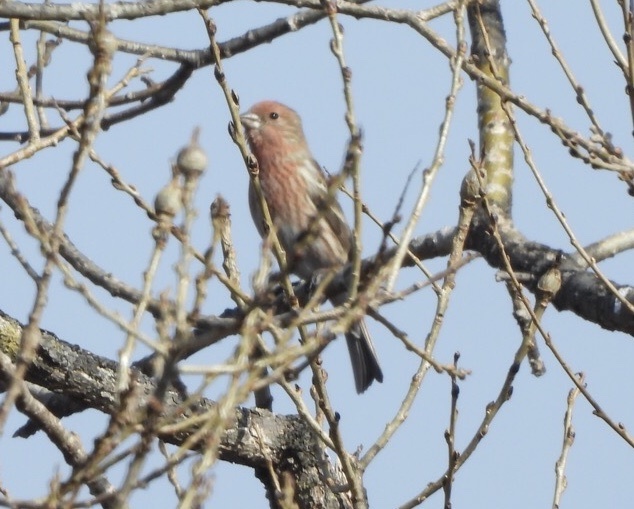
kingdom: Animalia
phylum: Chordata
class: Aves
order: Passeriformes
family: Fringillidae
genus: Carpodacus
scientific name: Carpodacus roseus
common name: Pallas's rosefinch
